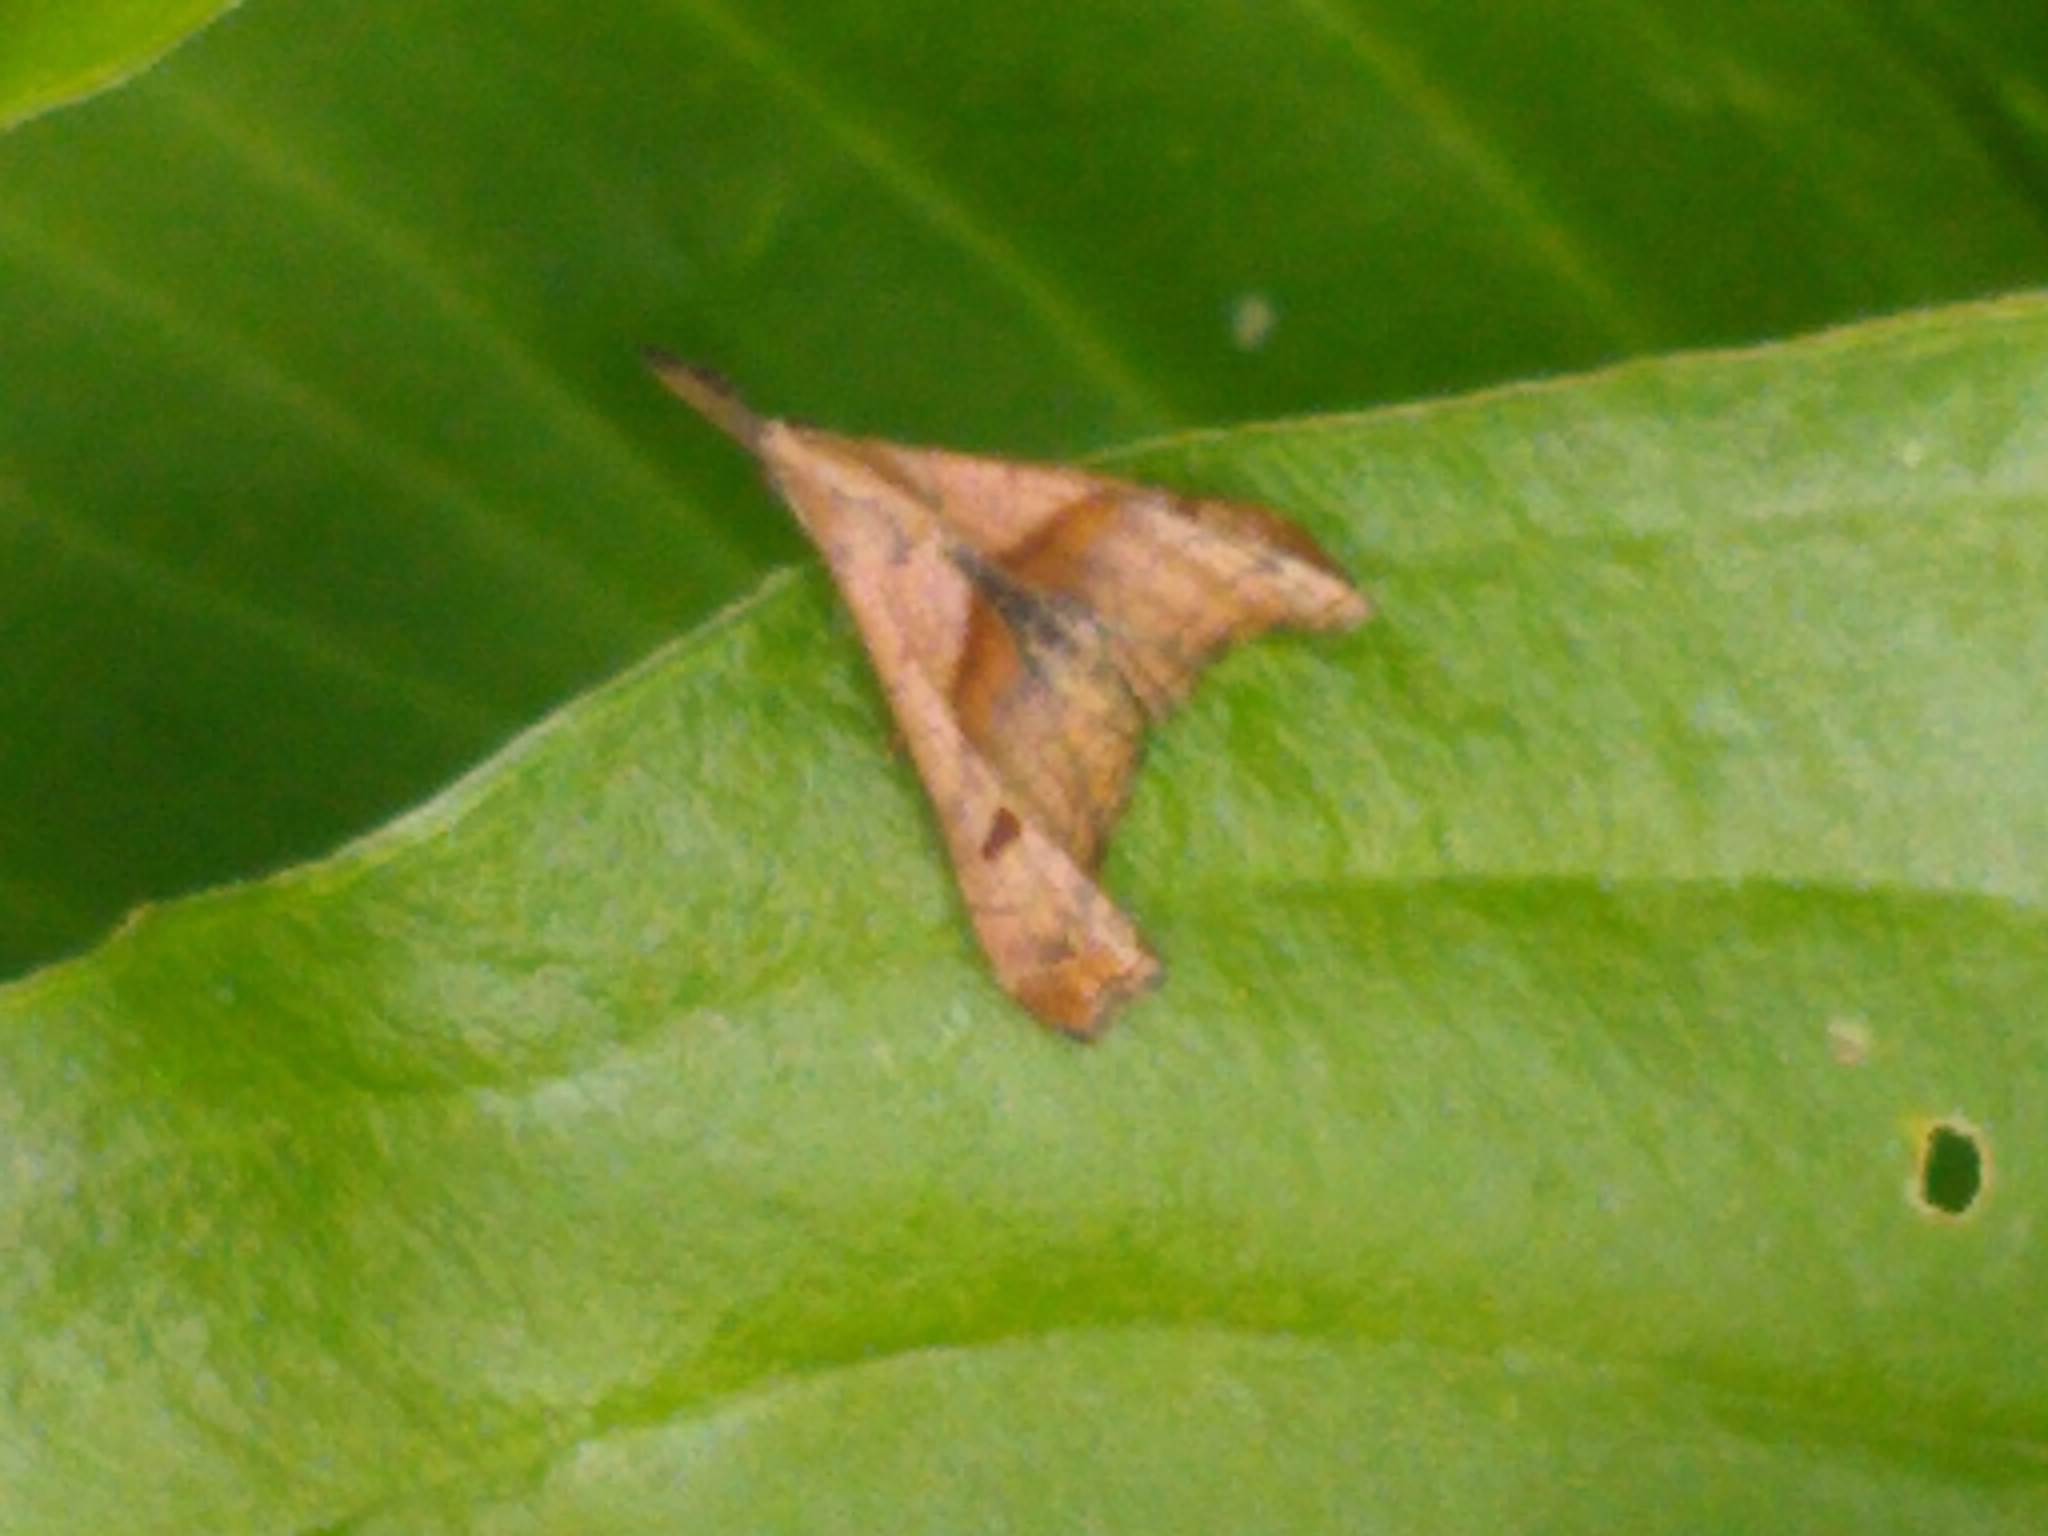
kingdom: Animalia
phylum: Arthropoda
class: Insecta
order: Lepidoptera
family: Erebidae
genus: Palthis
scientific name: Palthis angulalis
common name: Dark-spotted palthis moth
